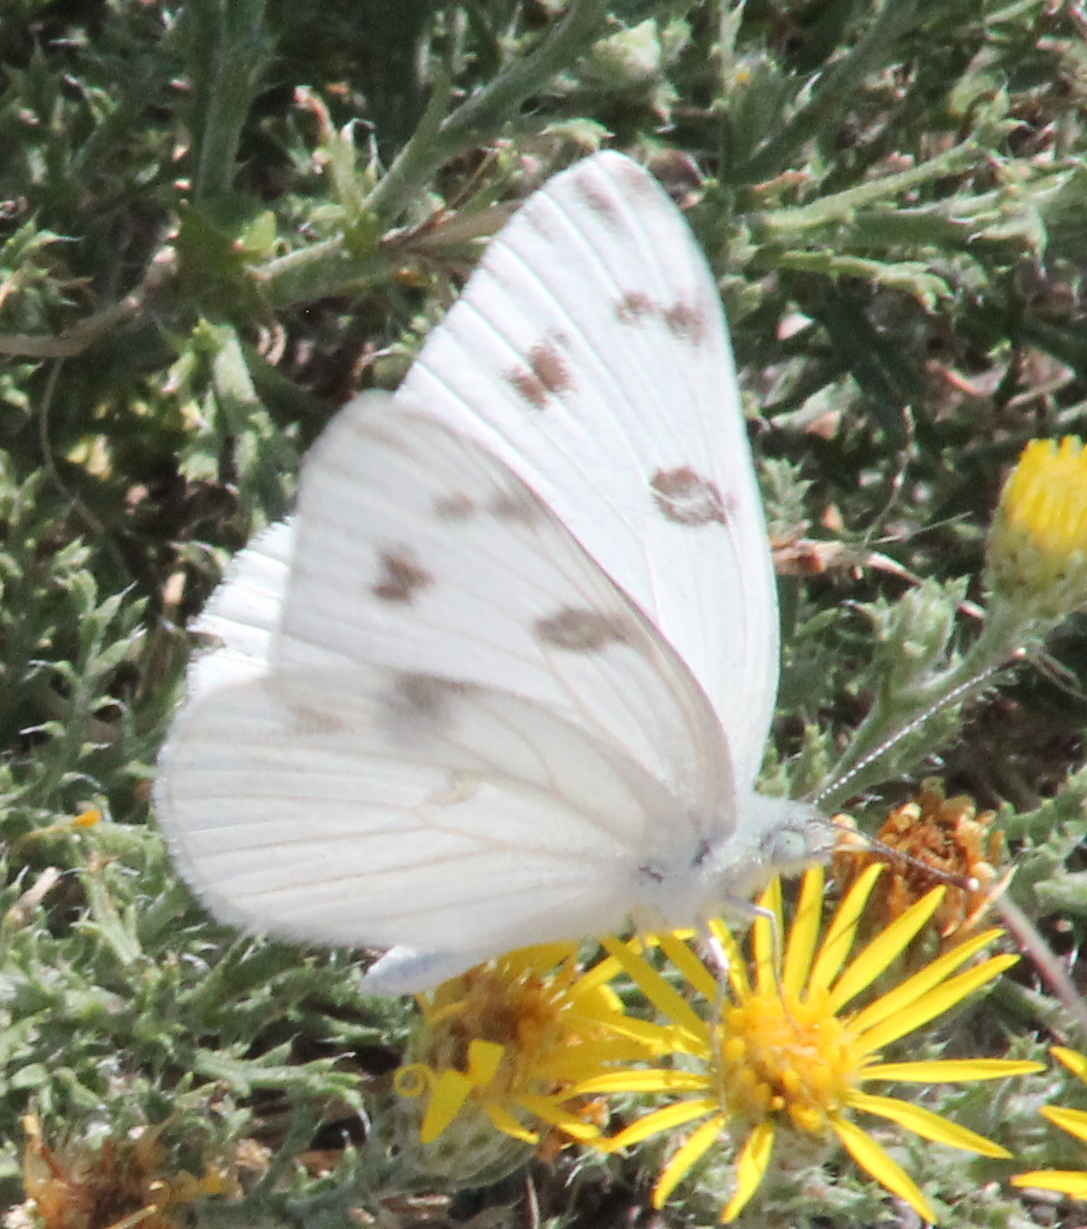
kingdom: Animalia
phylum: Arthropoda
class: Insecta
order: Lepidoptera
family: Pieridae
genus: Pontia
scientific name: Pontia protodice
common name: Checkered white
